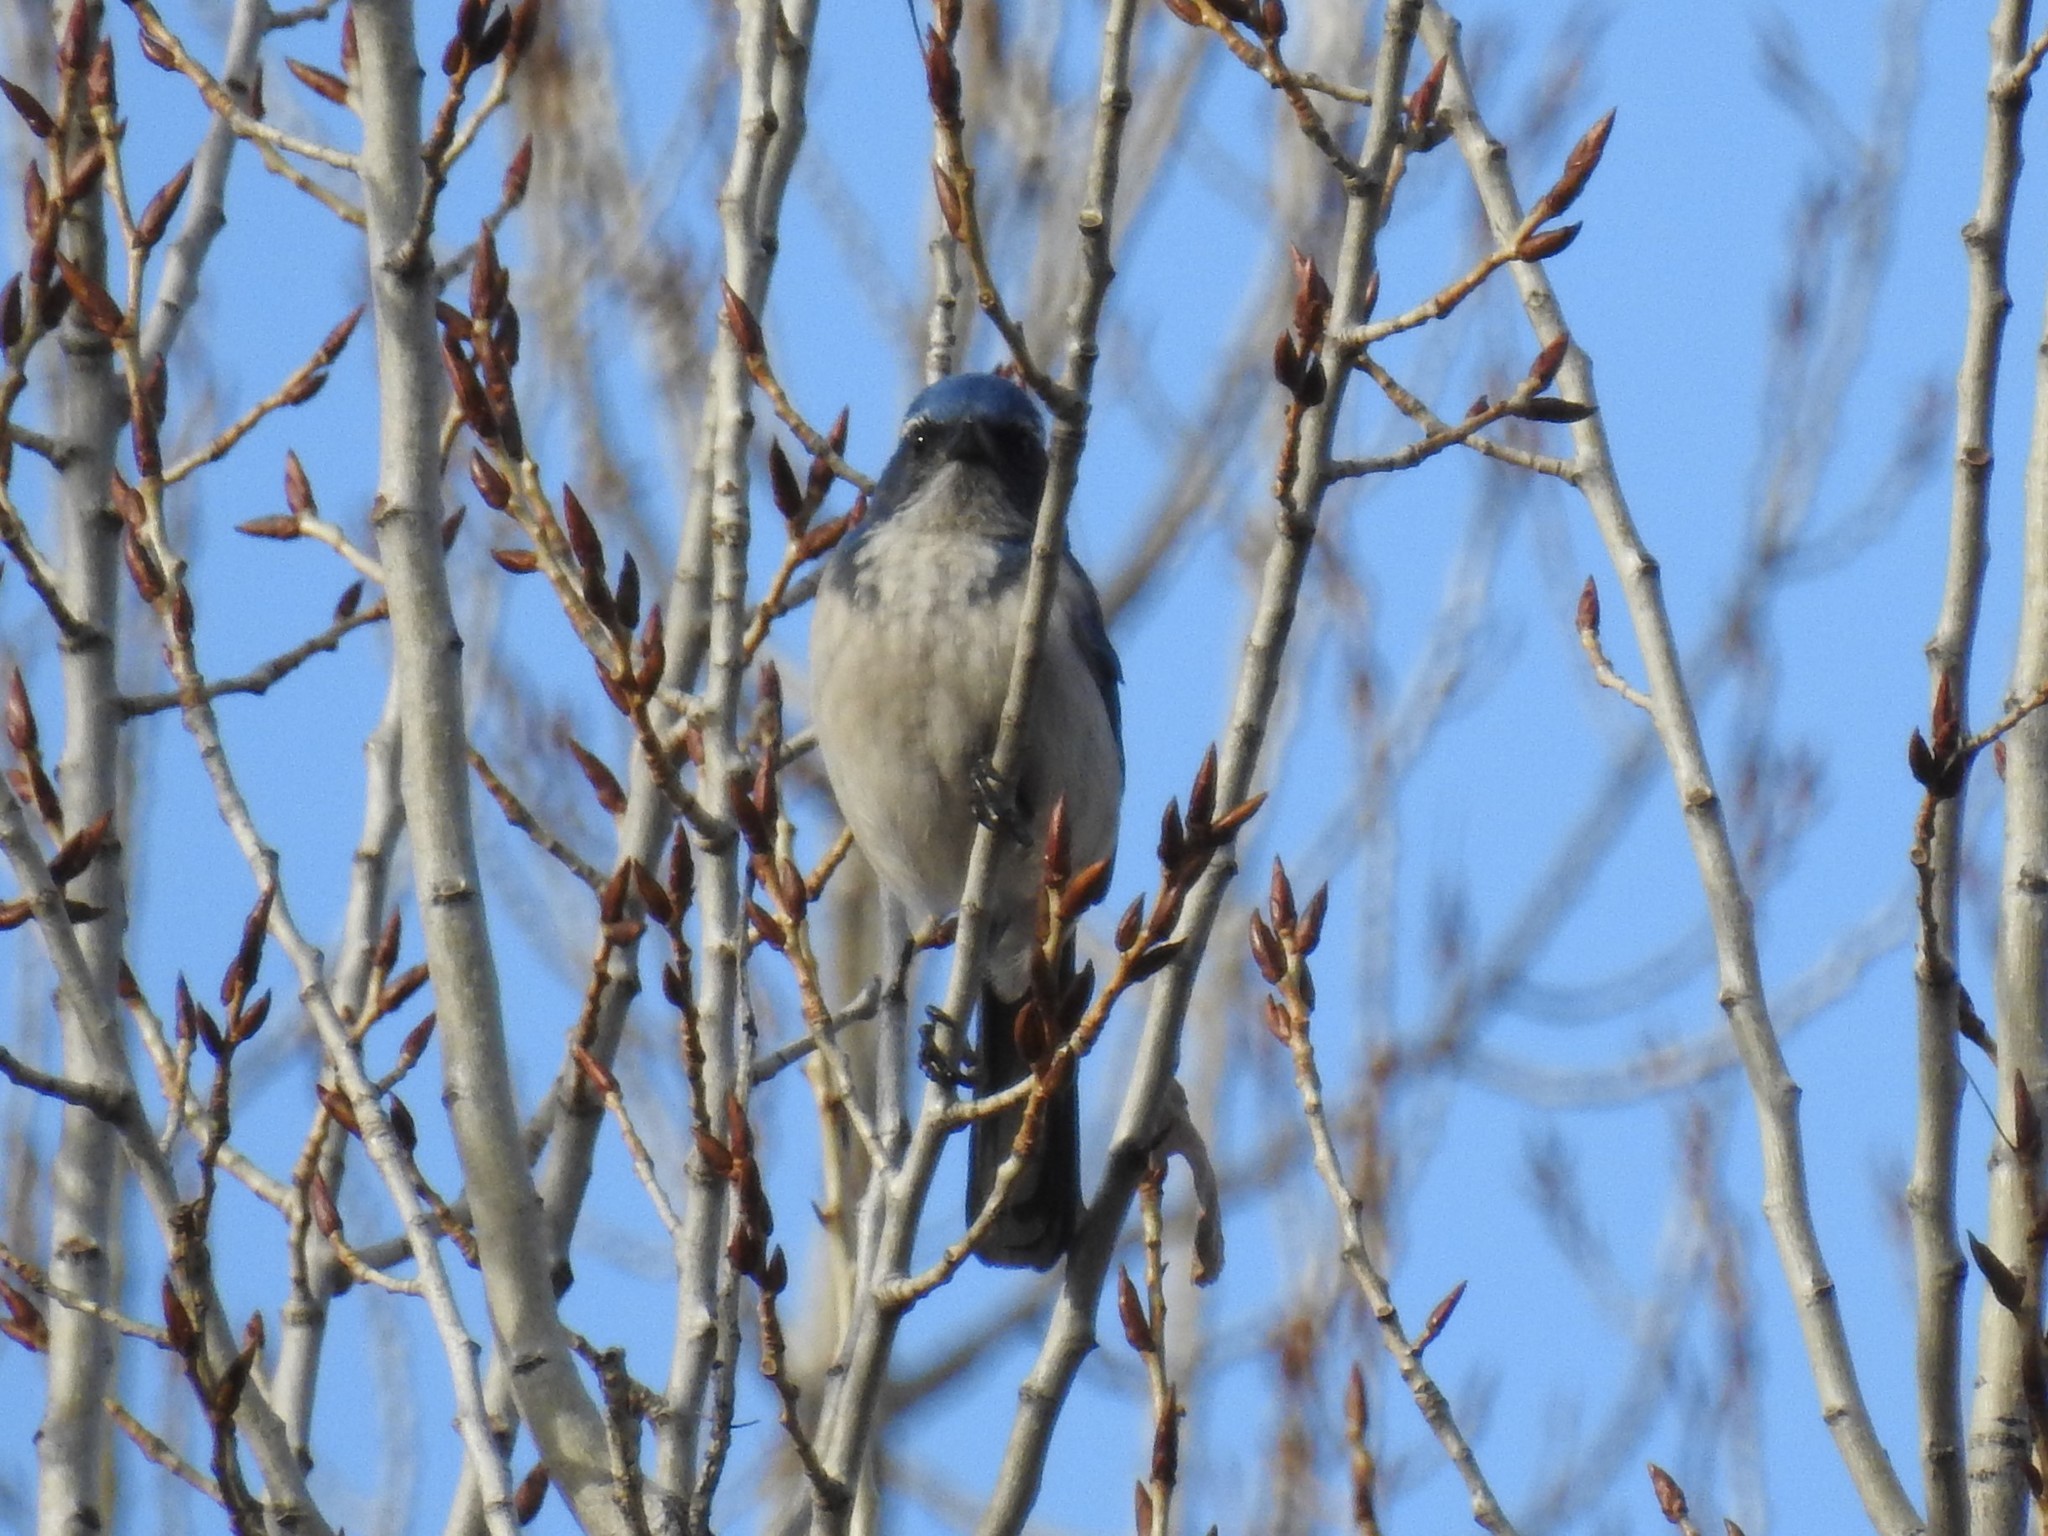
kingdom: Animalia
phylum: Chordata
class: Aves
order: Passeriformes
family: Corvidae
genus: Aphelocoma
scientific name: Aphelocoma californica
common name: California scrub-jay
